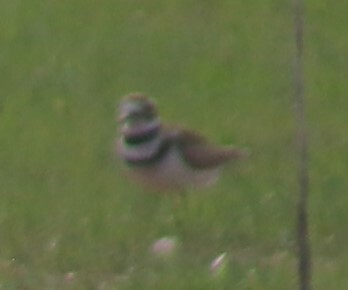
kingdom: Animalia
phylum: Chordata
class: Aves
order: Charadriiformes
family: Charadriidae
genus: Charadrius
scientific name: Charadrius vociferus
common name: Killdeer
